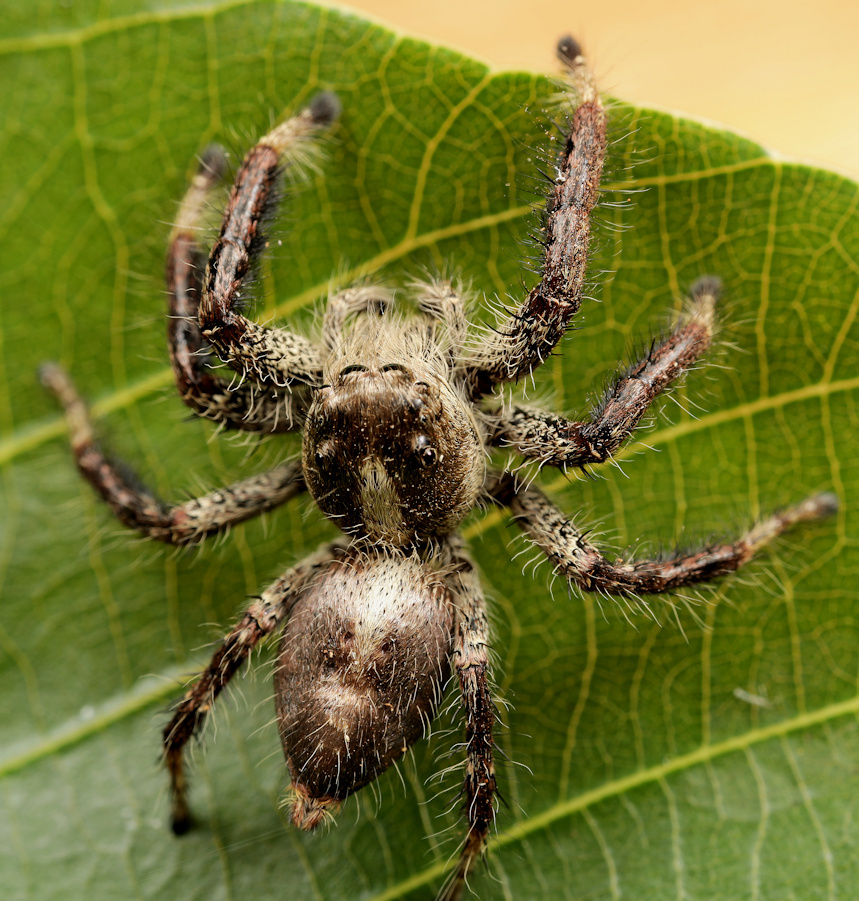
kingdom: Animalia
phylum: Arthropoda
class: Arachnida
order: Araneae
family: Salticidae
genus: Hyllus
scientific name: Hyllus treleaveni
